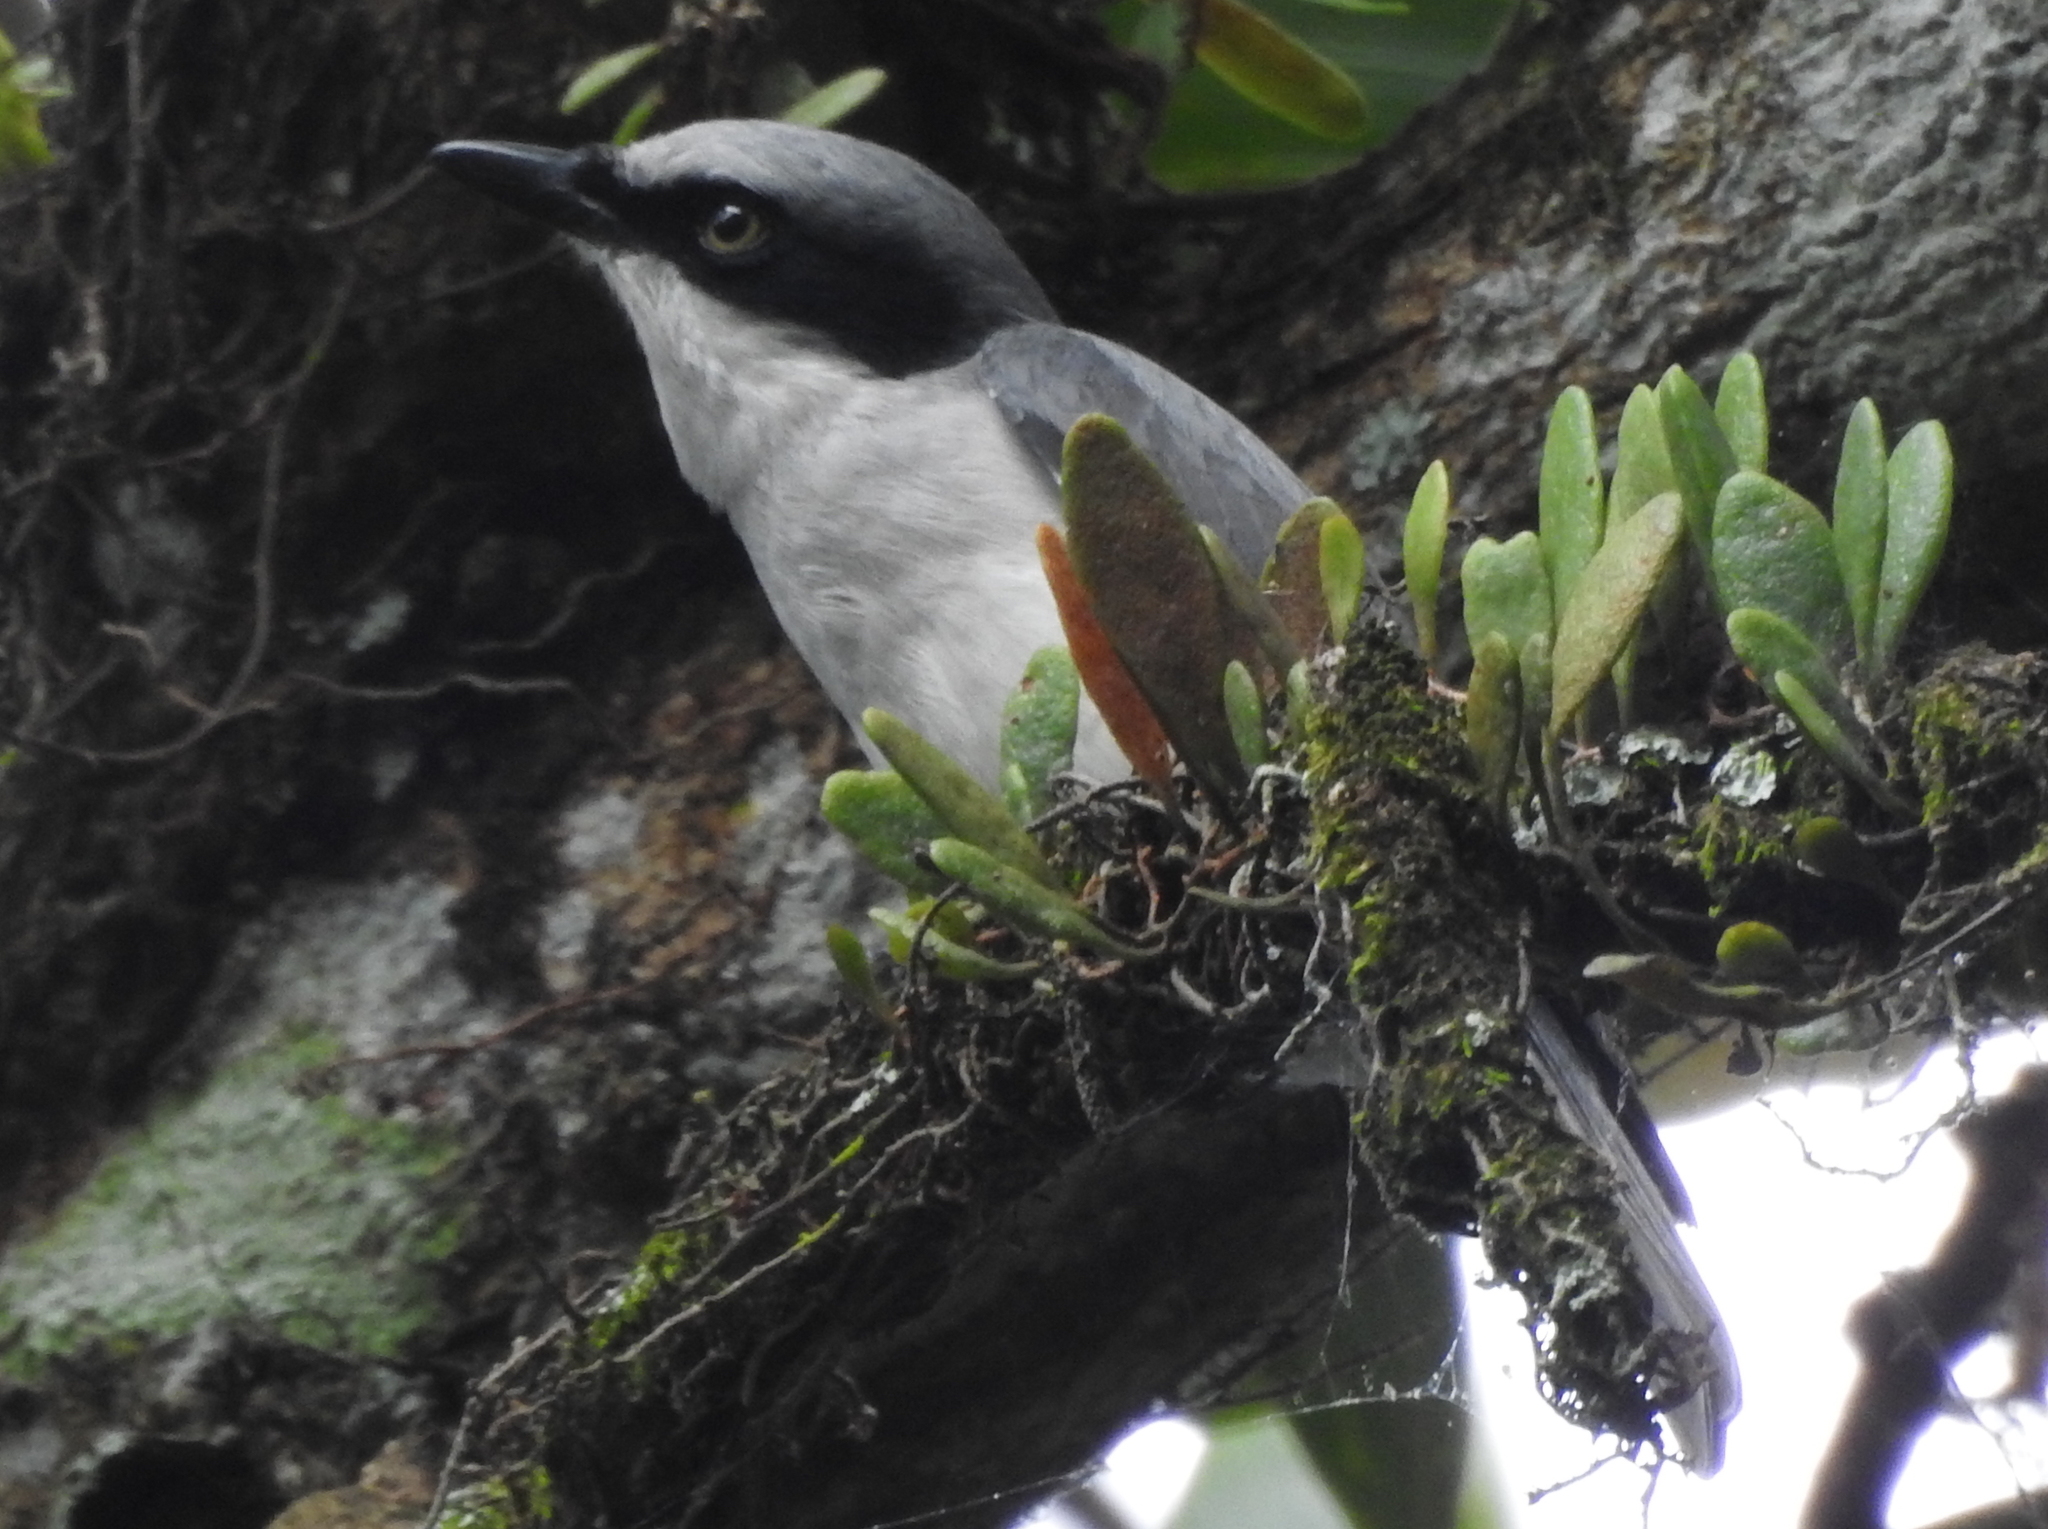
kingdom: Animalia
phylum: Chordata
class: Aves
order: Passeriformes
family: Tephrodornithidae
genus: Tephrodornis
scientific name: Tephrodornis virgatus
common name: Large woodshrike
